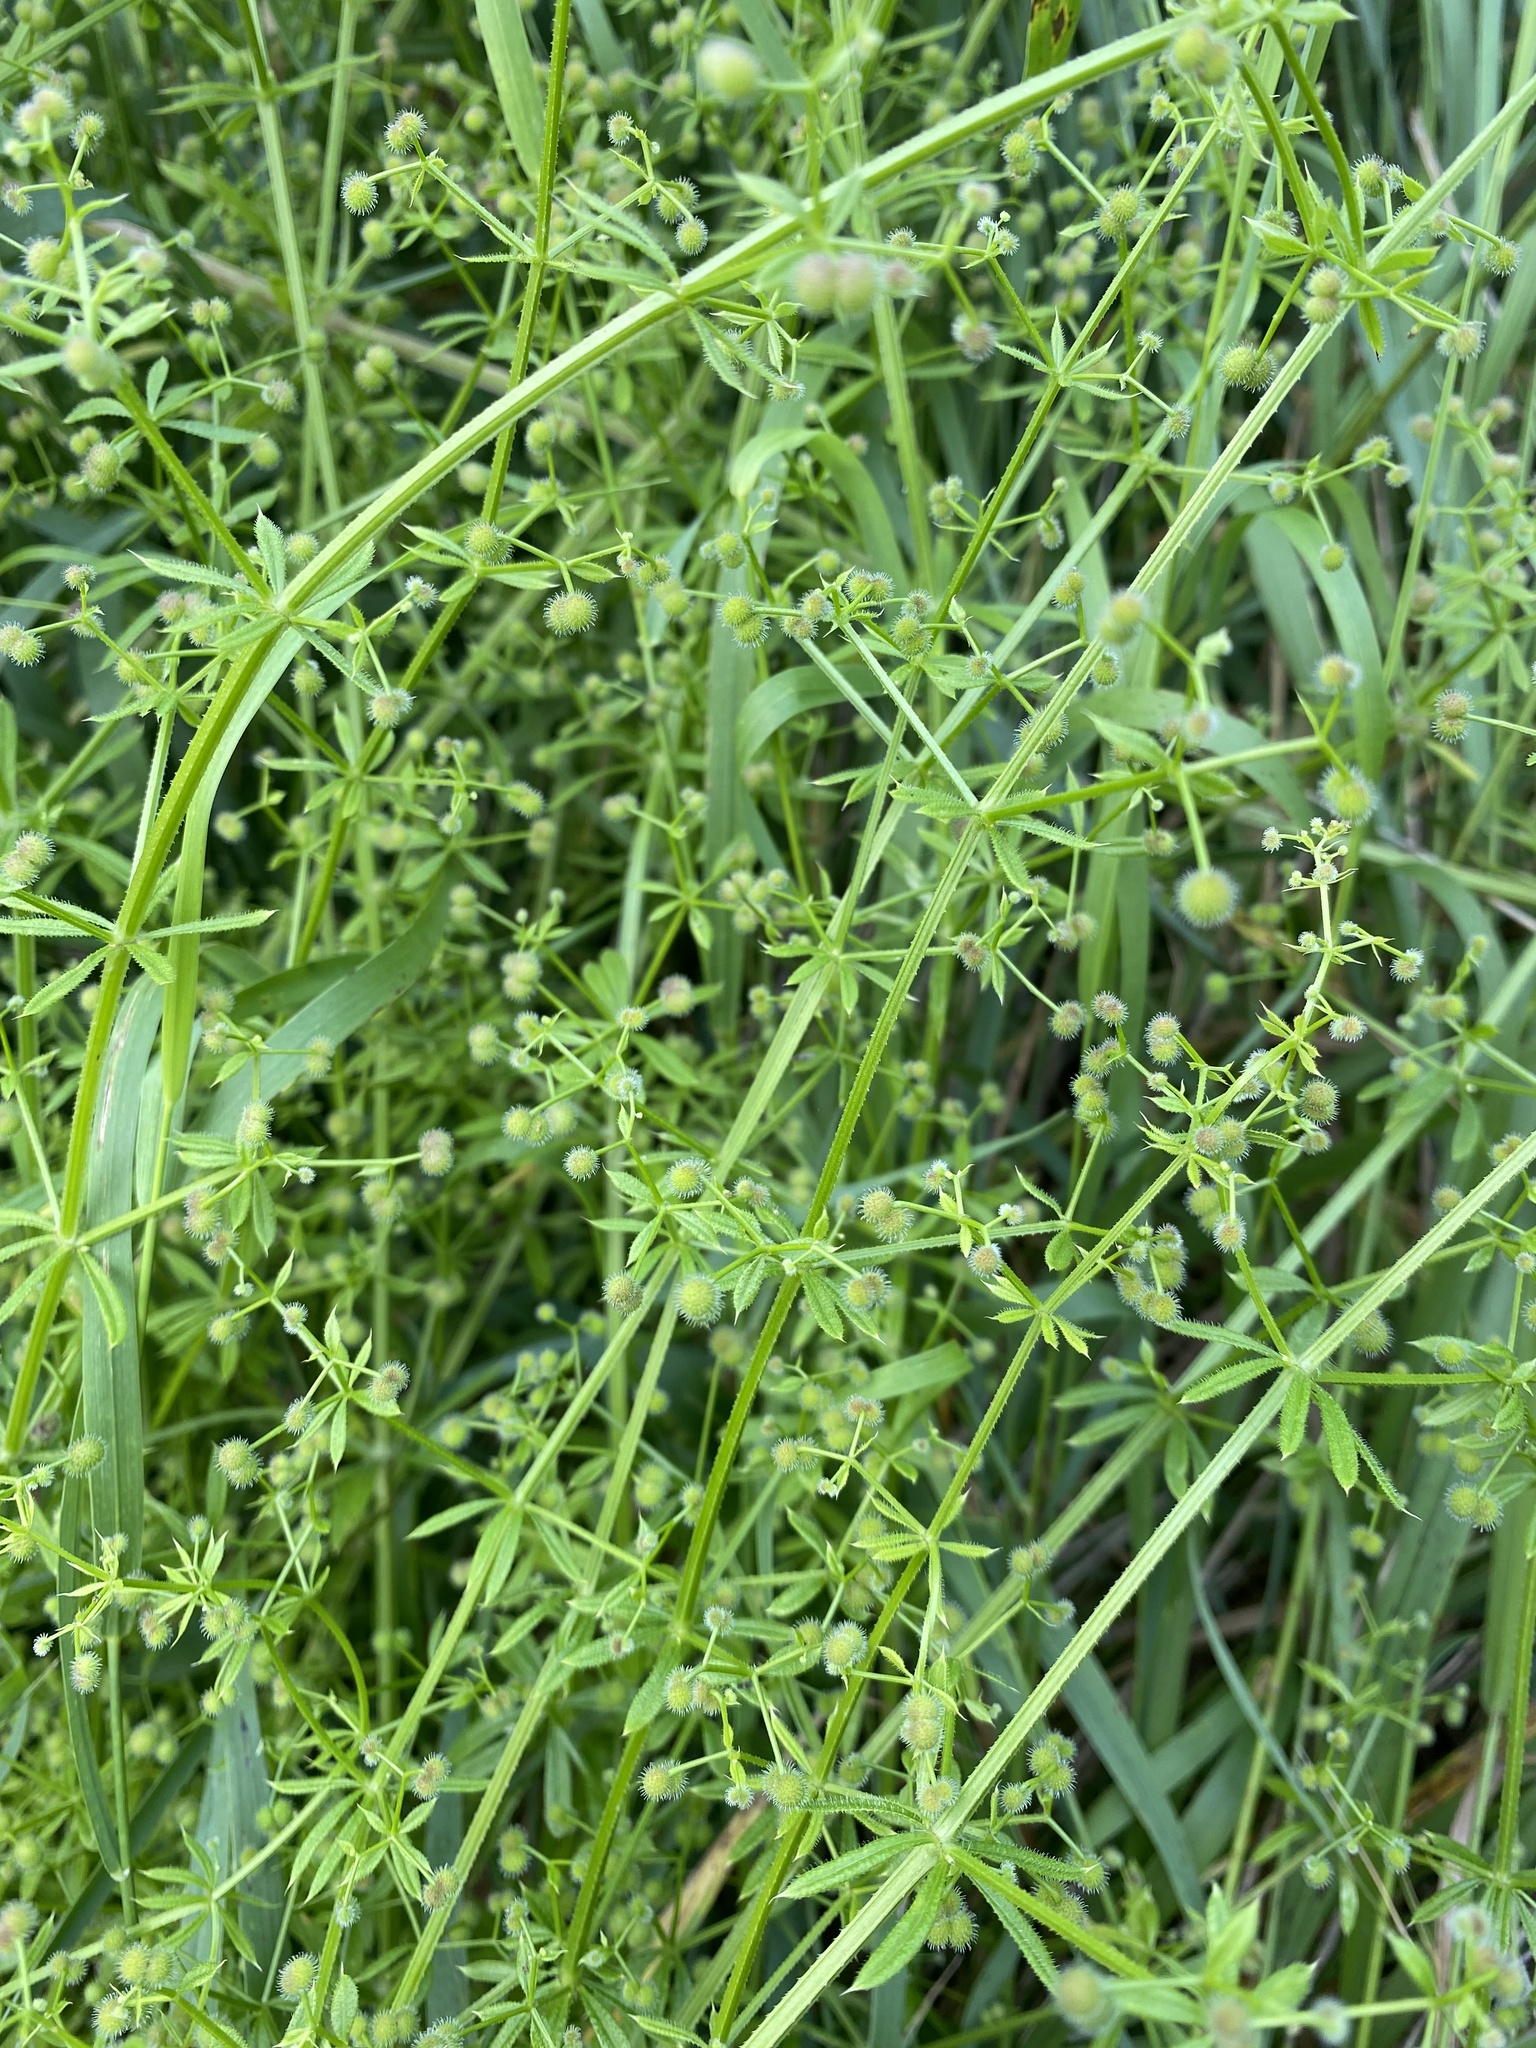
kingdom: Plantae
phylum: Tracheophyta
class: Magnoliopsida
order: Gentianales
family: Rubiaceae
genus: Galium
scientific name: Galium aparine
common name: Cleavers
